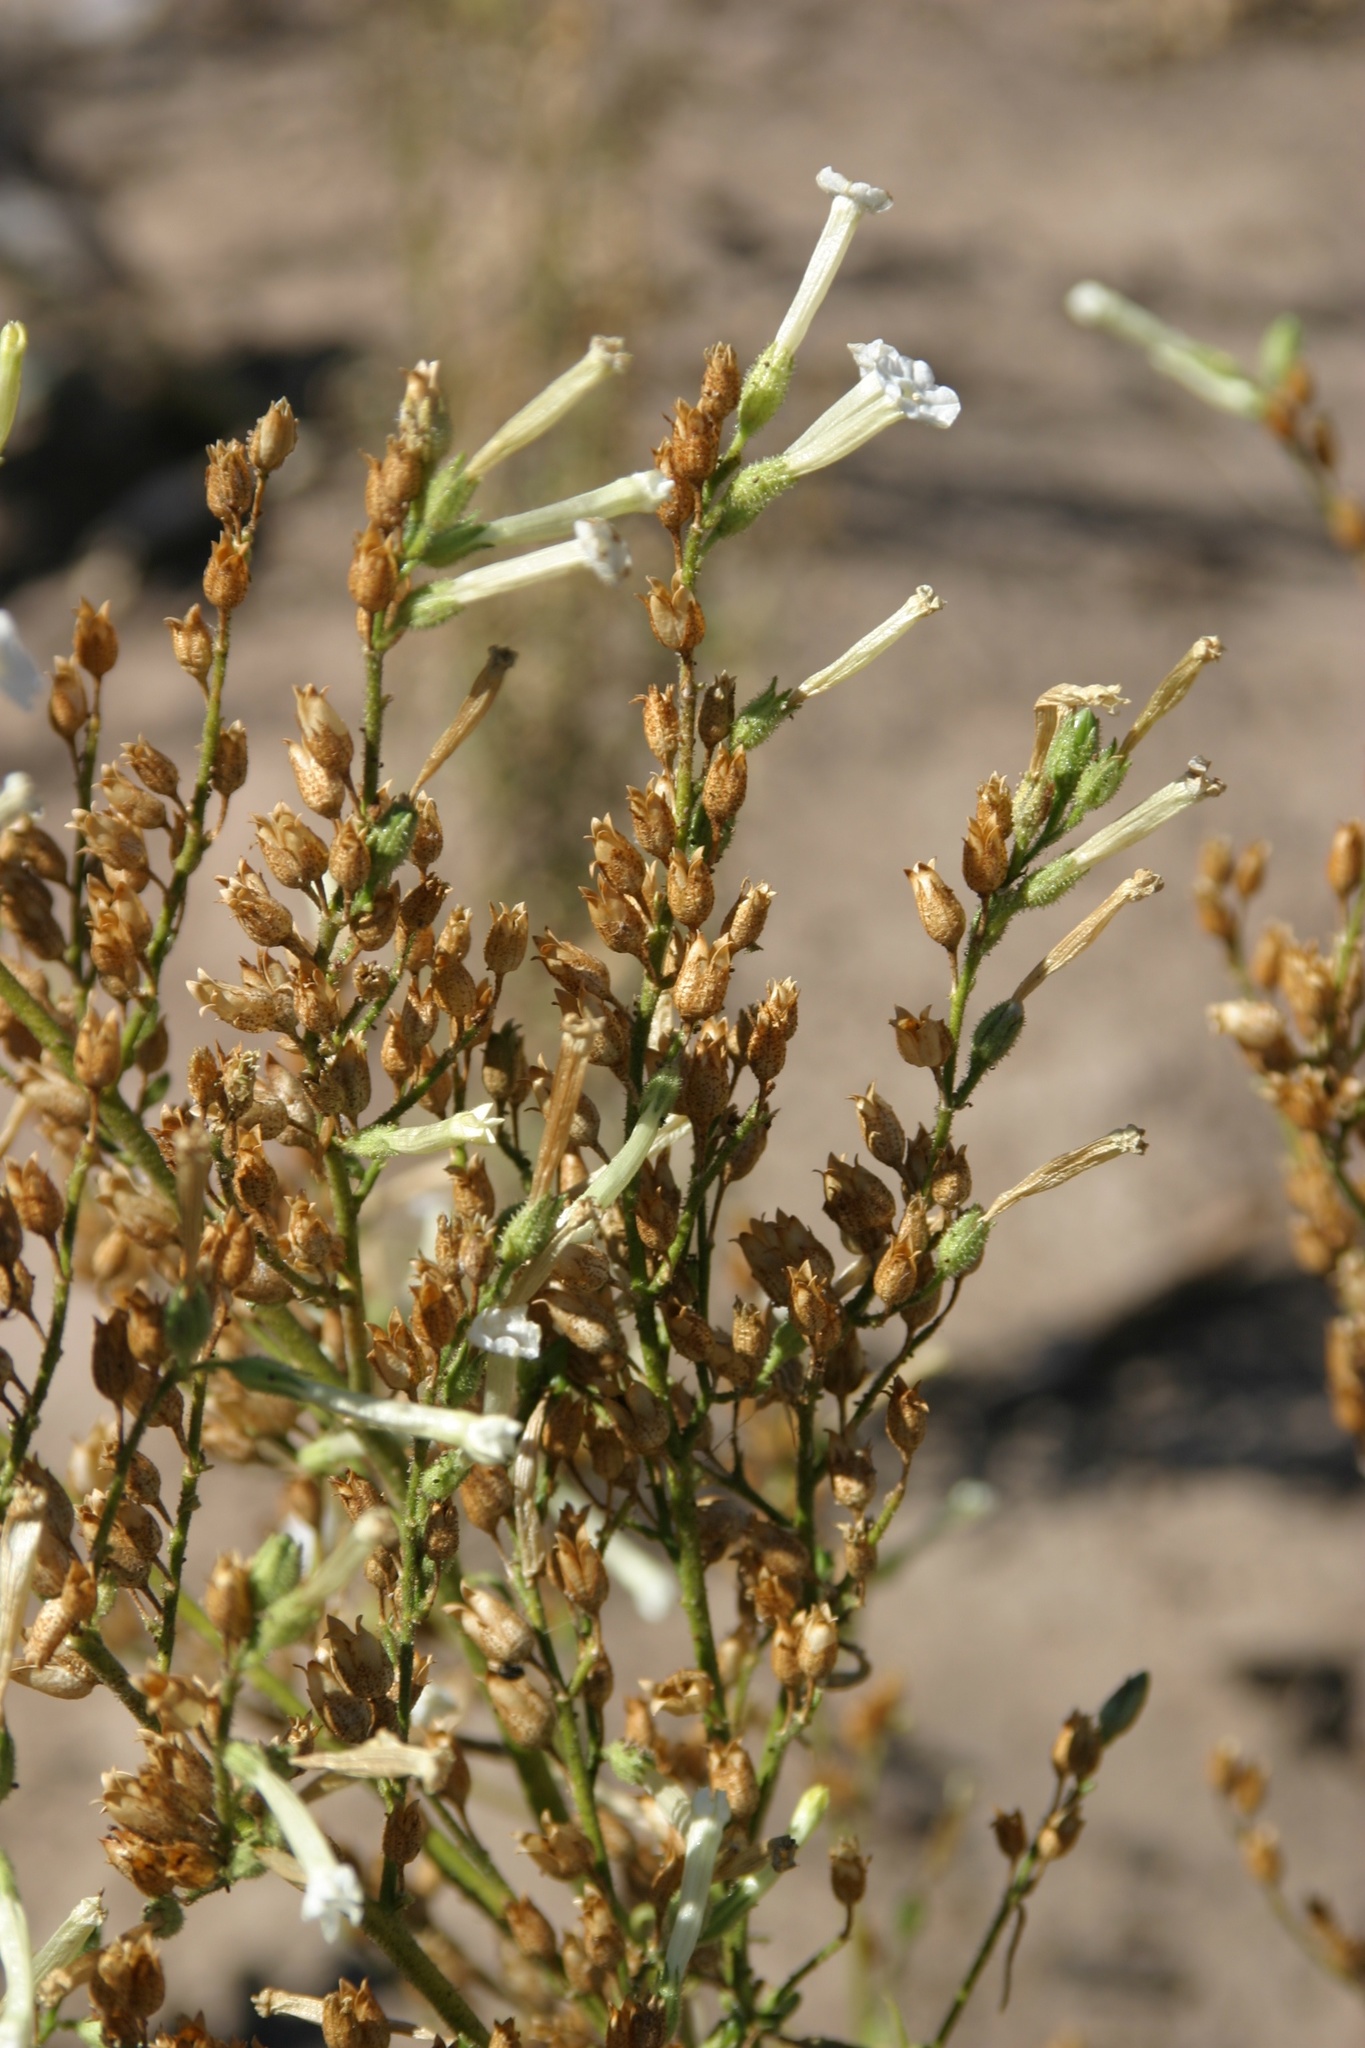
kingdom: Plantae
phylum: Tracheophyta
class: Magnoliopsida
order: Solanales
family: Solanaceae
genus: Nicotiana
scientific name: Nicotiana attenuata
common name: Coyote tobacco
